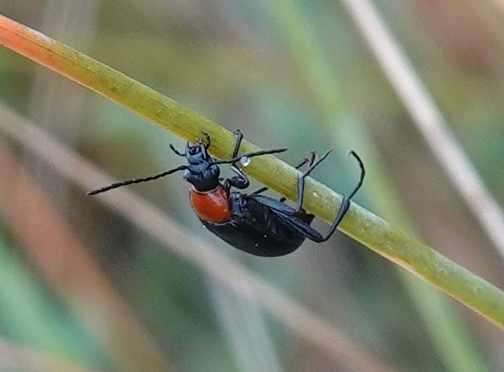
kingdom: Animalia
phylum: Arthropoda
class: Insecta
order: Coleoptera
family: Tenebrionidae
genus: Heliotaurus
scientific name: Heliotaurus ruficollis
